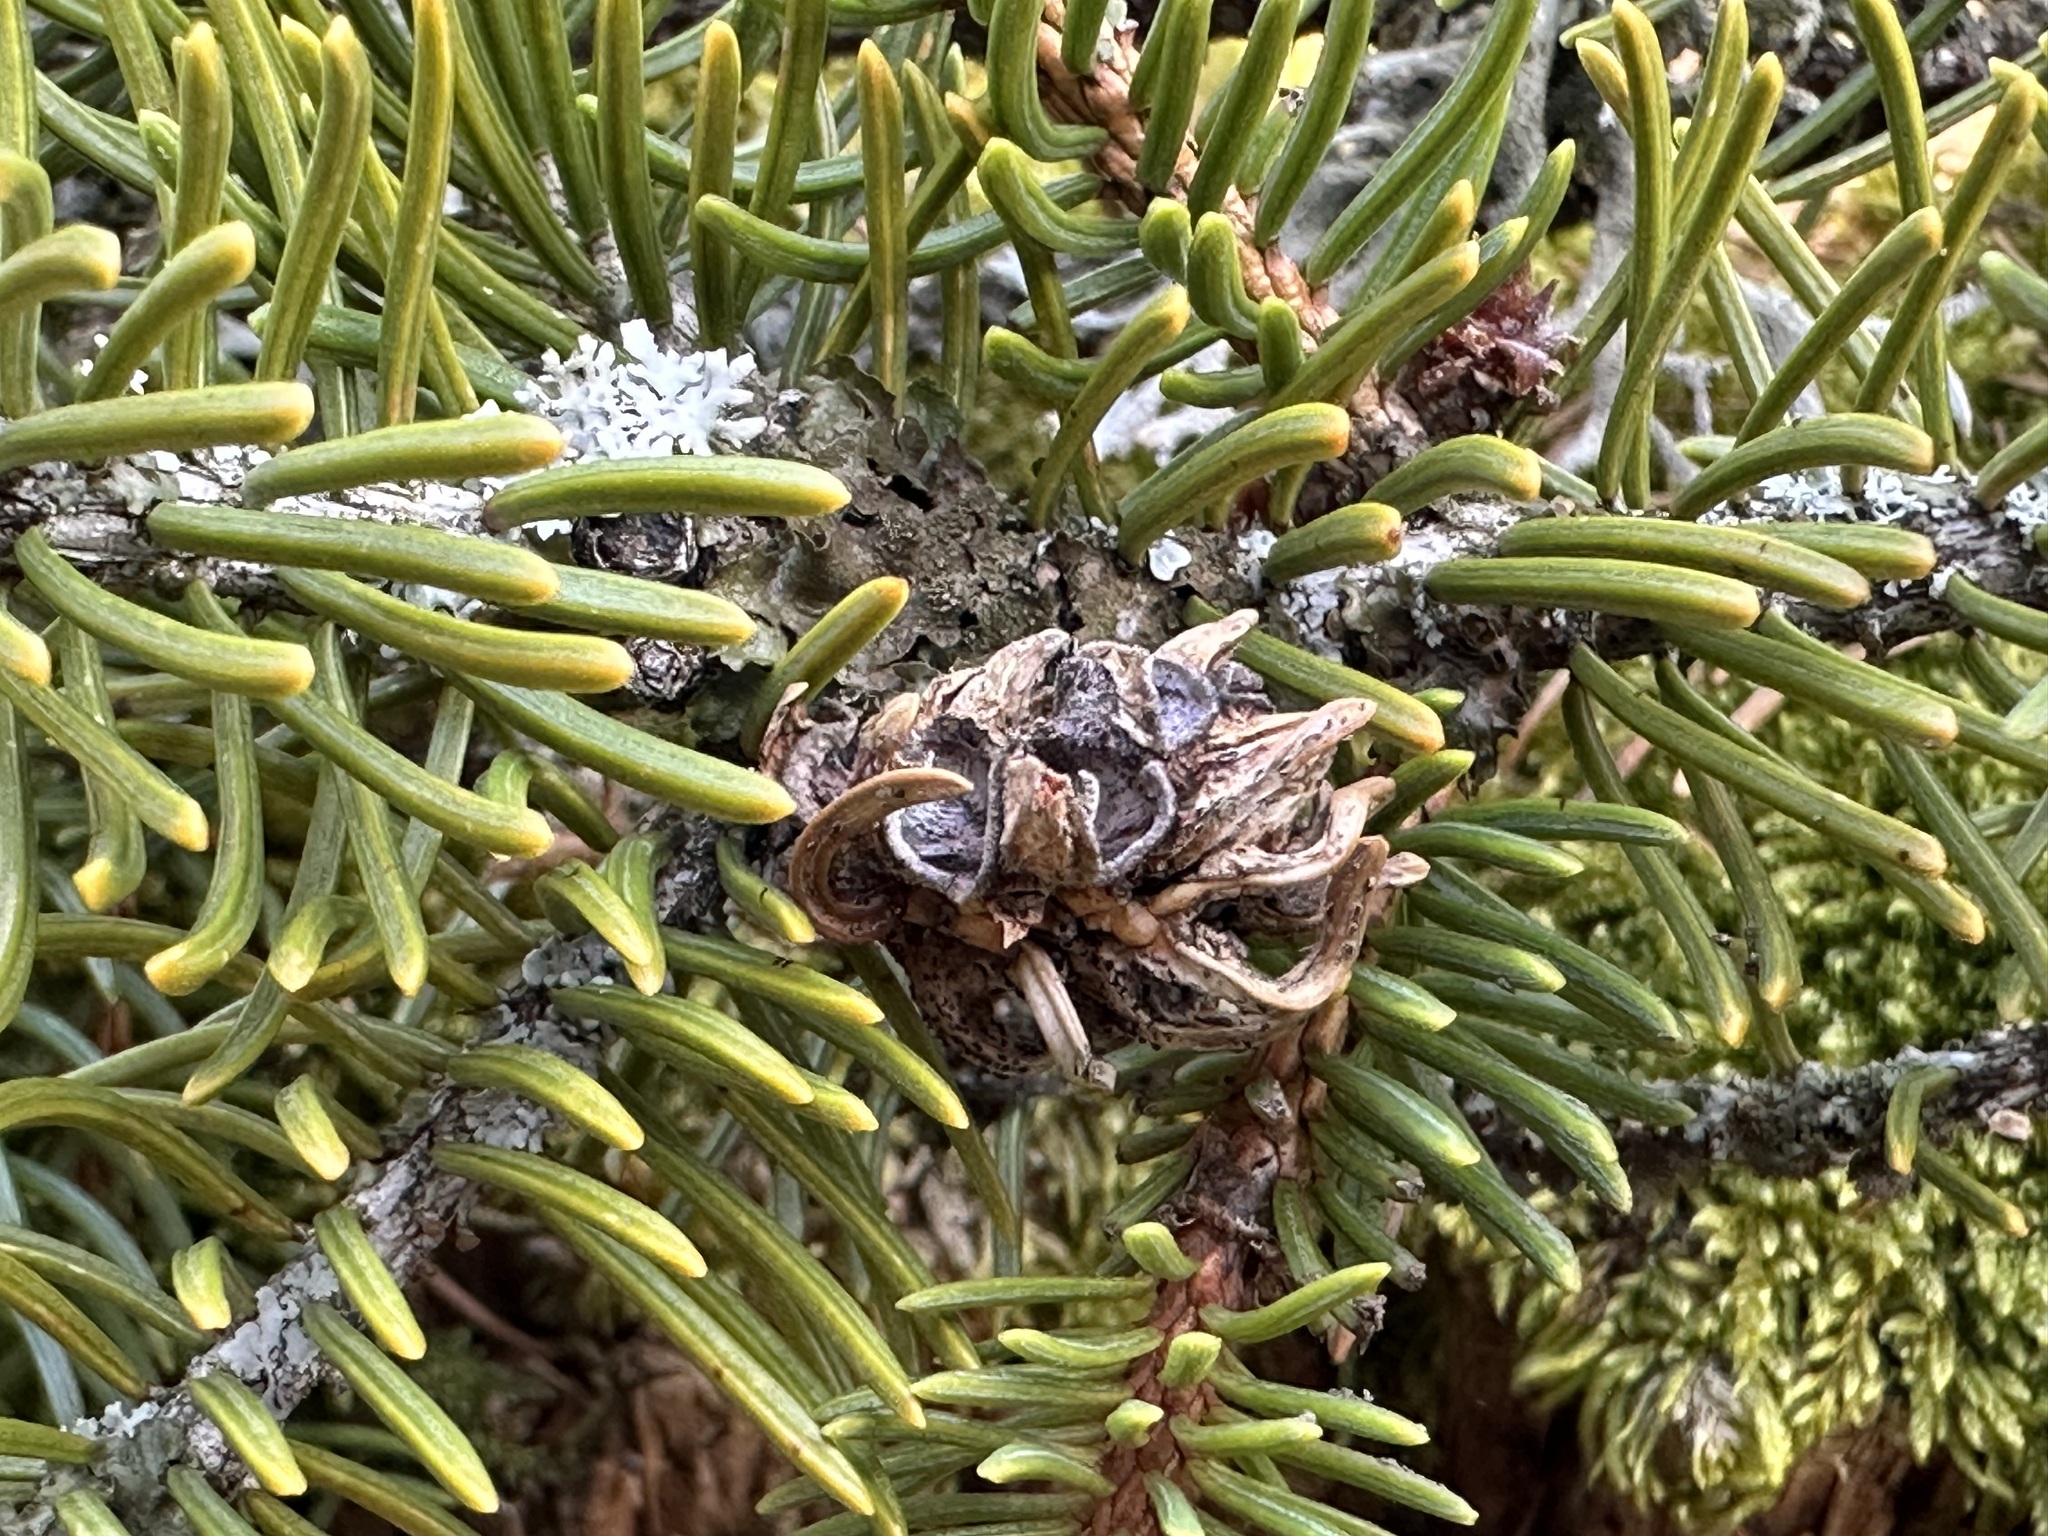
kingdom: Animalia
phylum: Arthropoda
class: Insecta
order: Hemiptera
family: Adelgidae
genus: Adelges
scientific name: Adelges viridis
